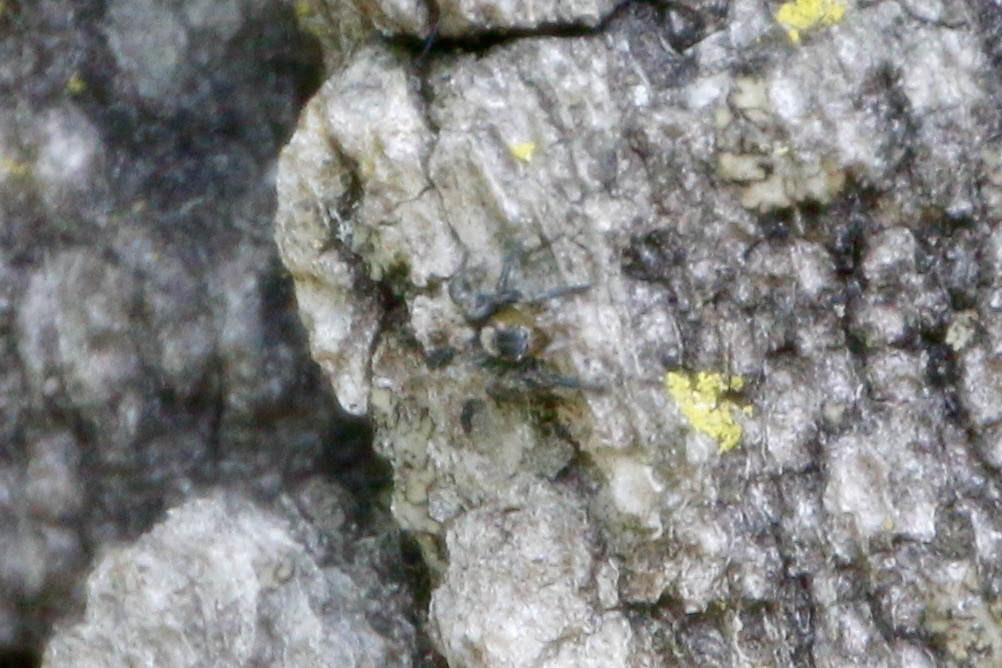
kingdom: Animalia
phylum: Arthropoda
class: Arachnida
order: Araneae
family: Salticidae
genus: Naphrys
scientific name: Naphrys pulex
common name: Flea jumping spider
